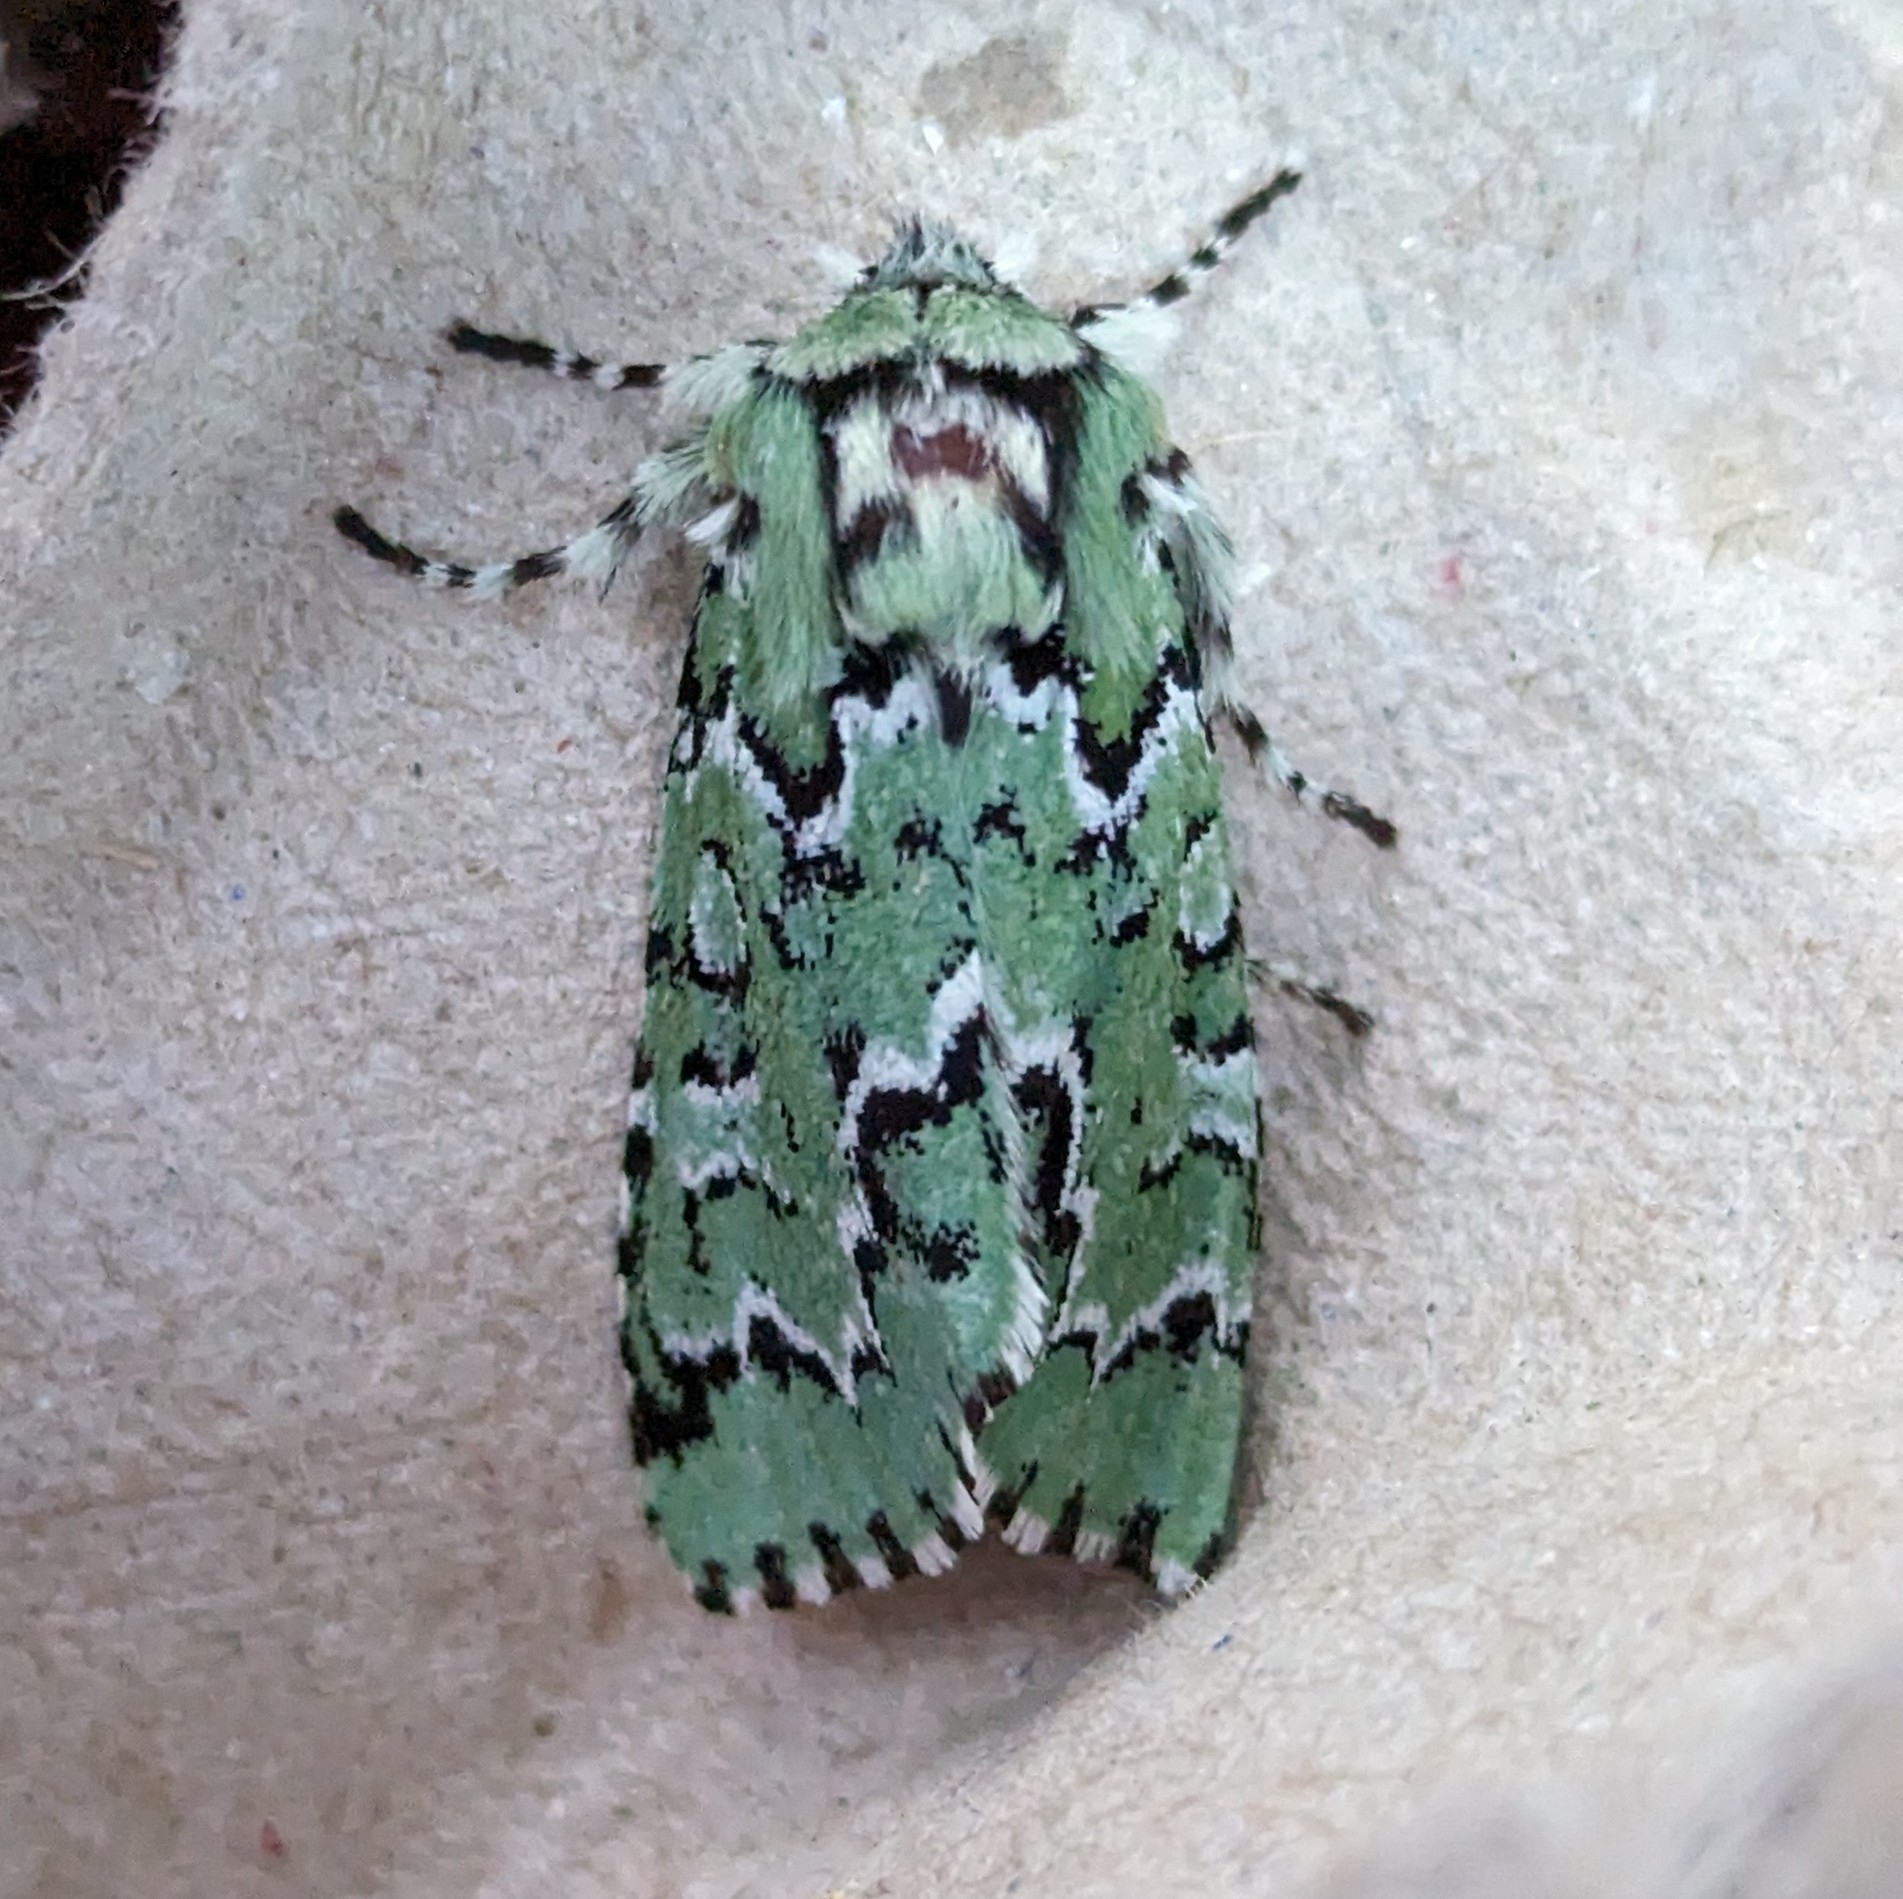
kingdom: Animalia
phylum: Arthropoda
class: Insecta
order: Lepidoptera
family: Noctuidae
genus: Feralia
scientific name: Feralia deceptiva
